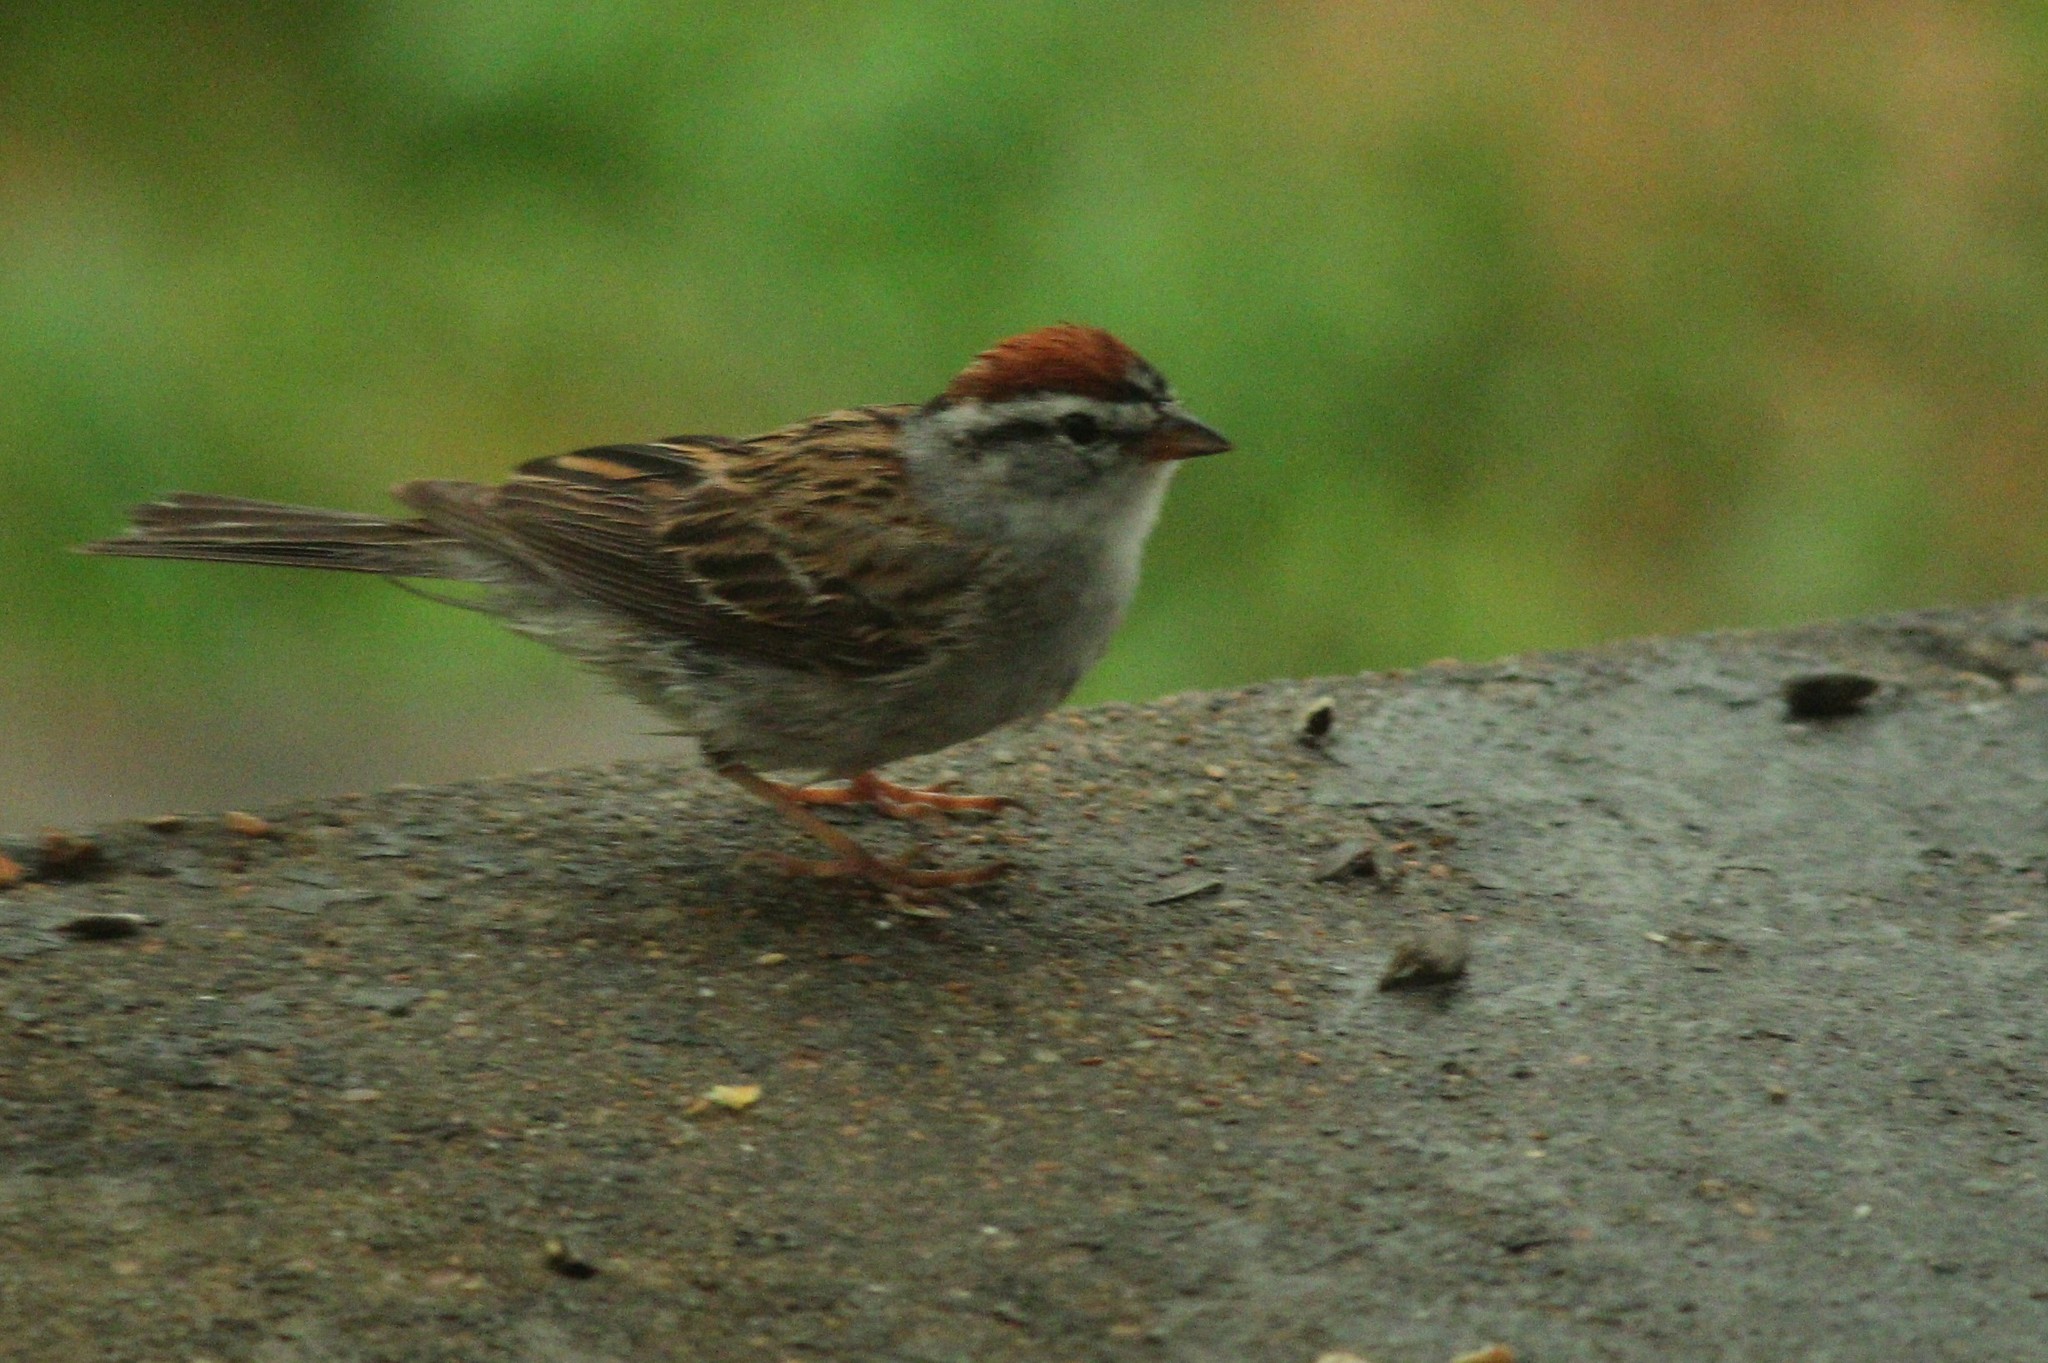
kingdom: Animalia
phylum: Chordata
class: Aves
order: Passeriformes
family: Passerellidae
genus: Spizella
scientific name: Spizella passerina
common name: Chipping sparrow
